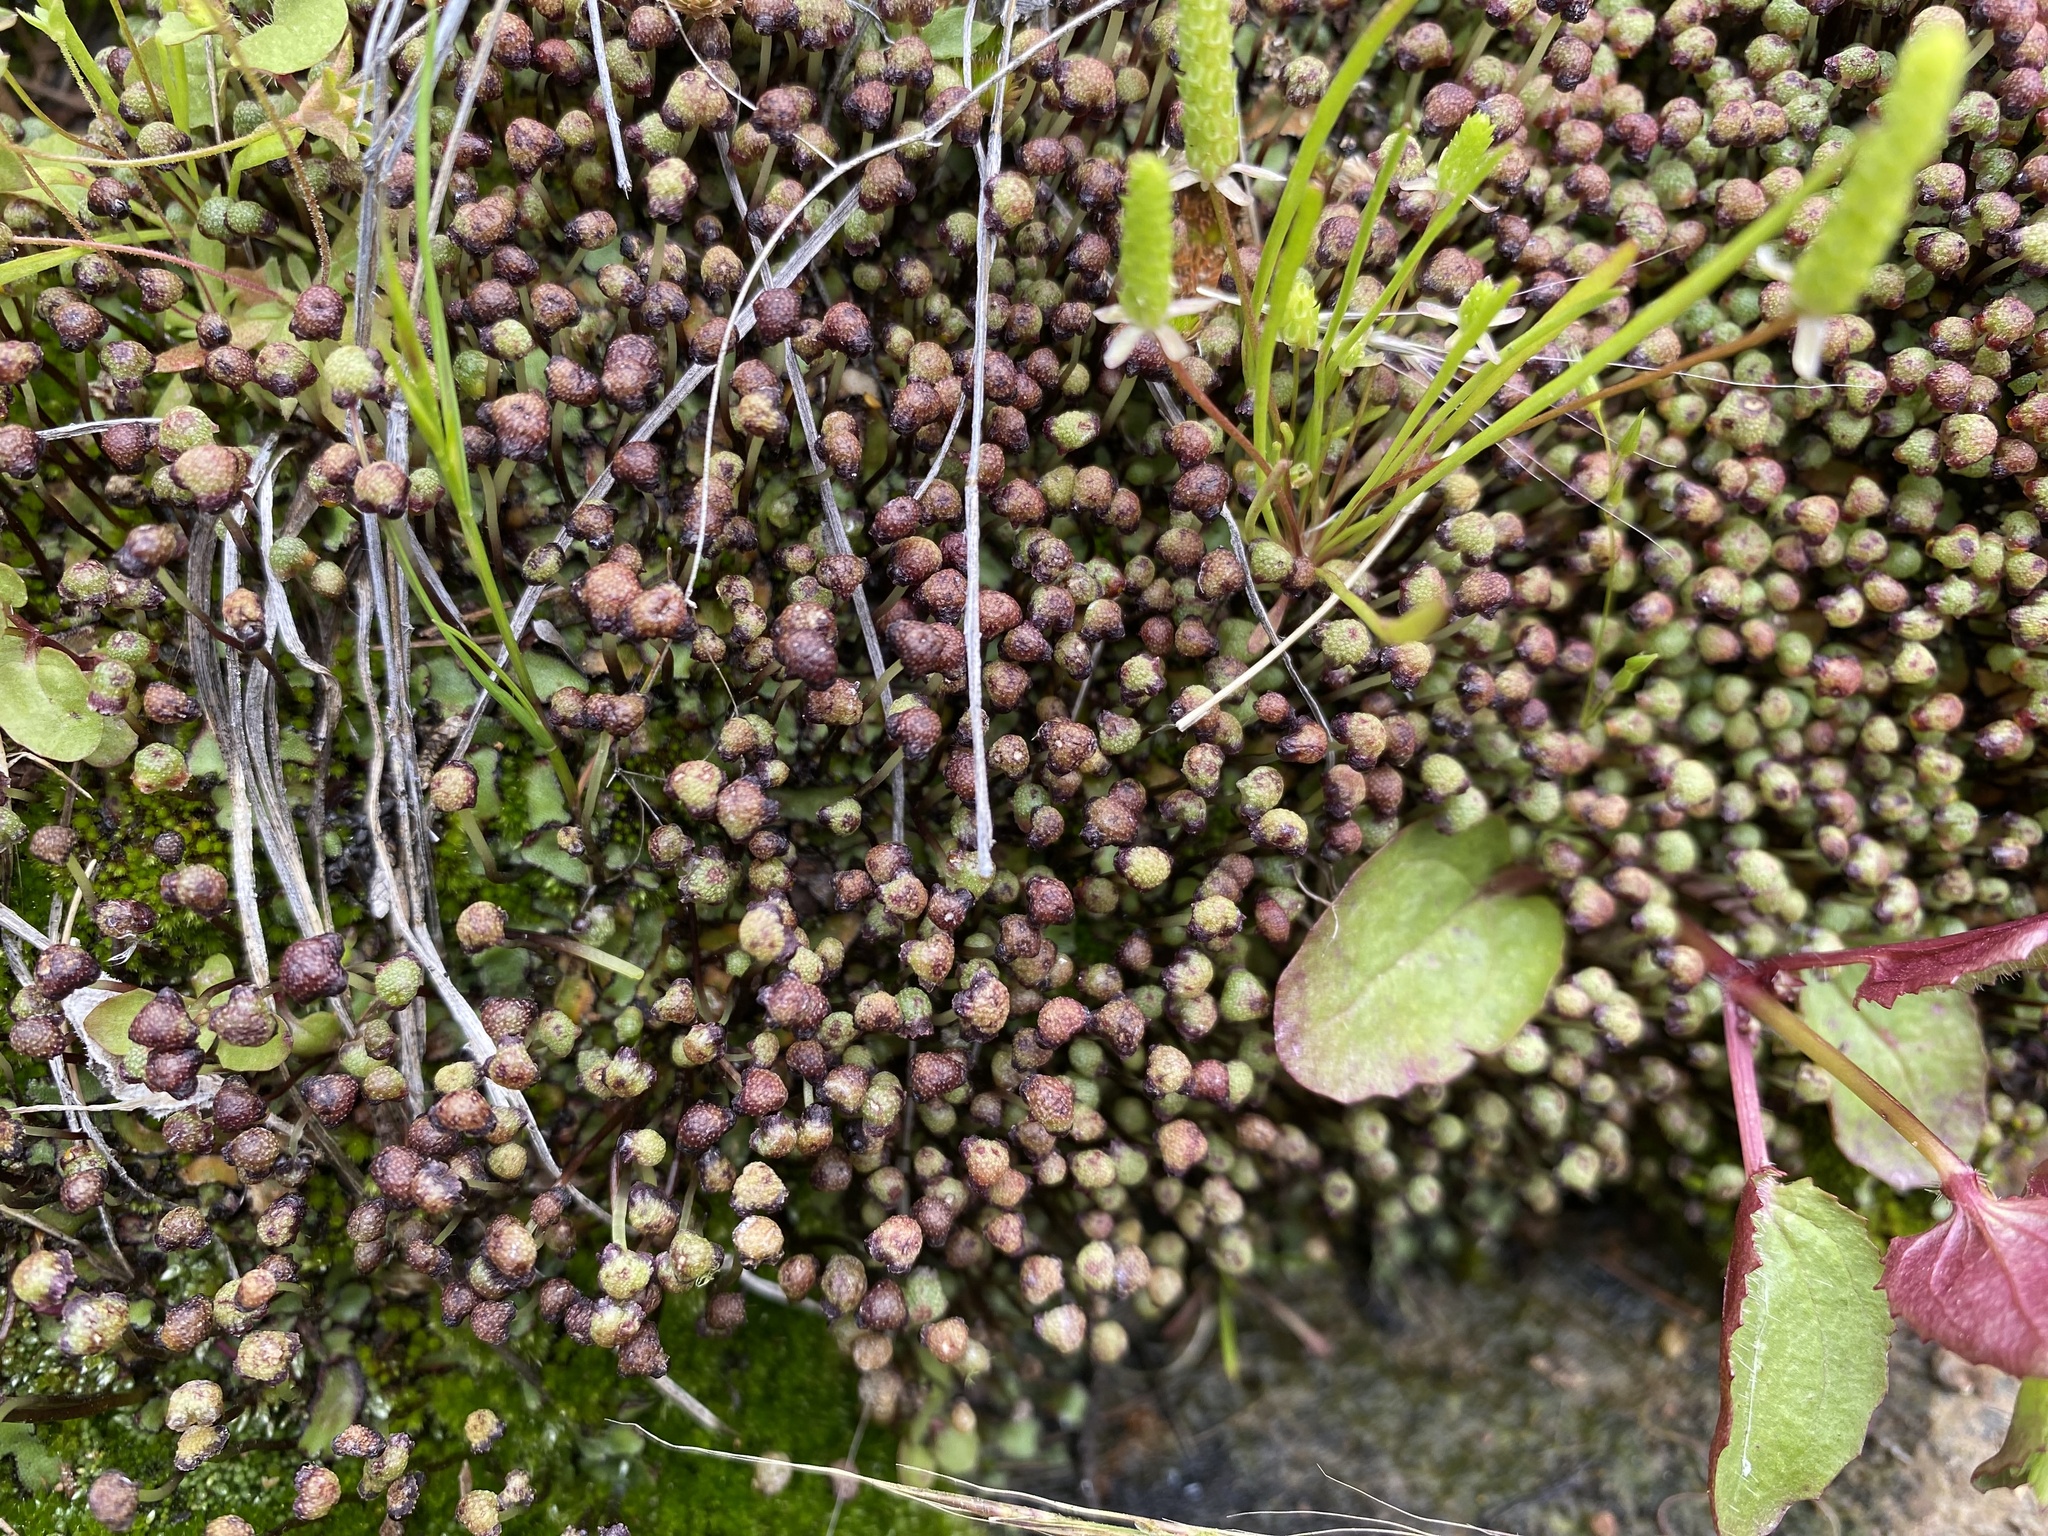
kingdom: Plantae
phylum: Marchantiophyta
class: Marchantiopsida
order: Marchantiales
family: Aytoniaceae
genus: Mannia
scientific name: Mannia californica
